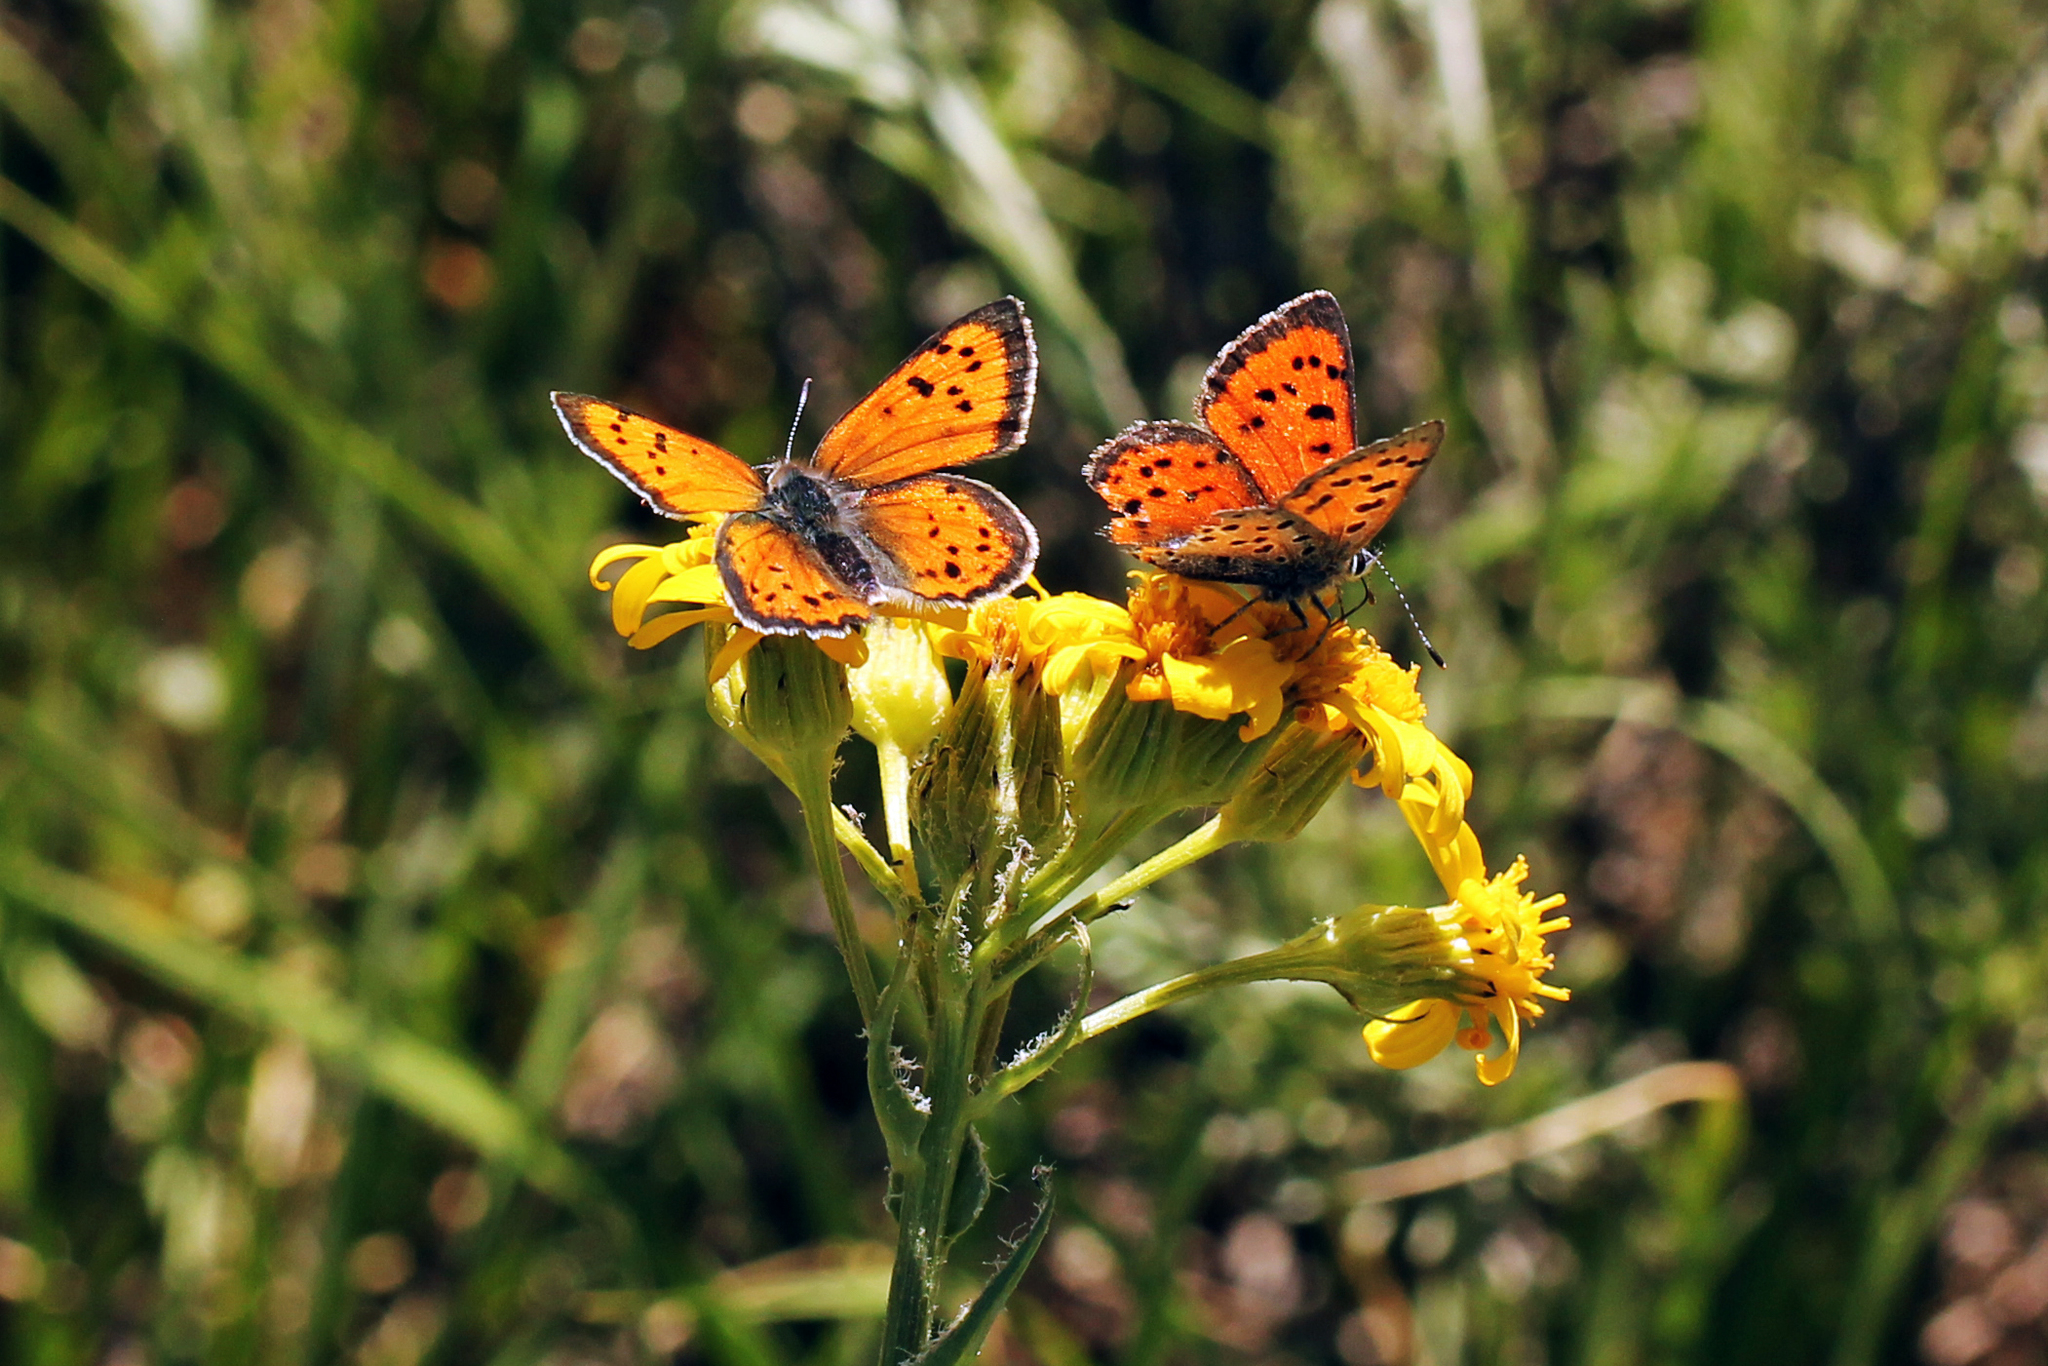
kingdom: Animalia
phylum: Arthropoda
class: Insecta
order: Lepidoptera
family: Lycaenidae
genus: Lycaena
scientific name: Lycaena cupreus
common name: Lustrous copper
